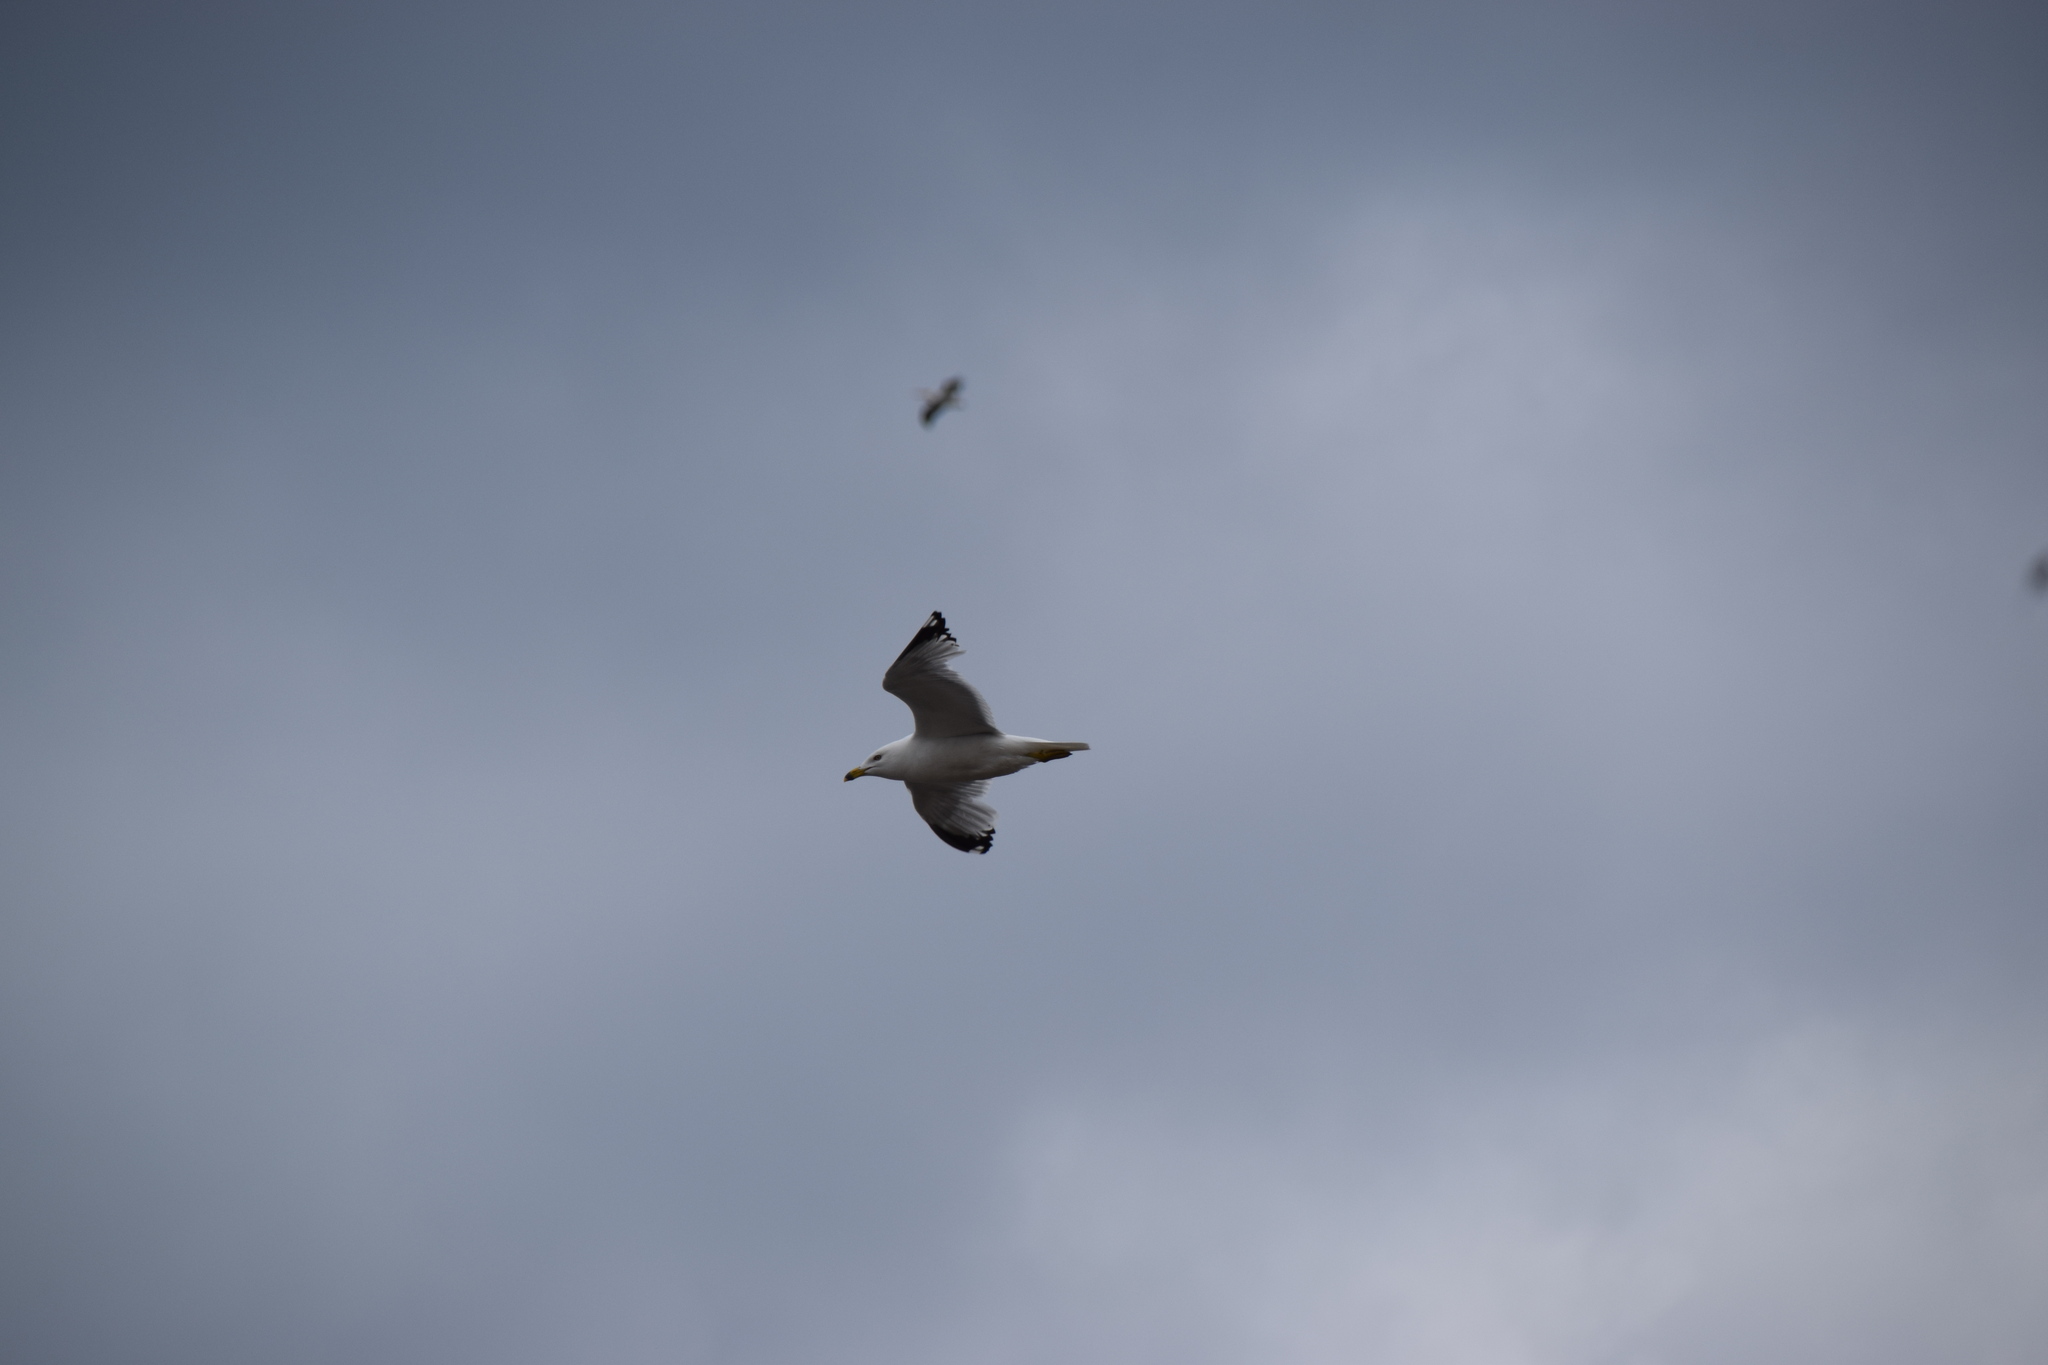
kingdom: Animalia
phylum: Chordata
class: Aves
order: Charadriiformes
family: Laridae
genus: Larus
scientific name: Larus delawarensis
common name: Ring-billed gull
